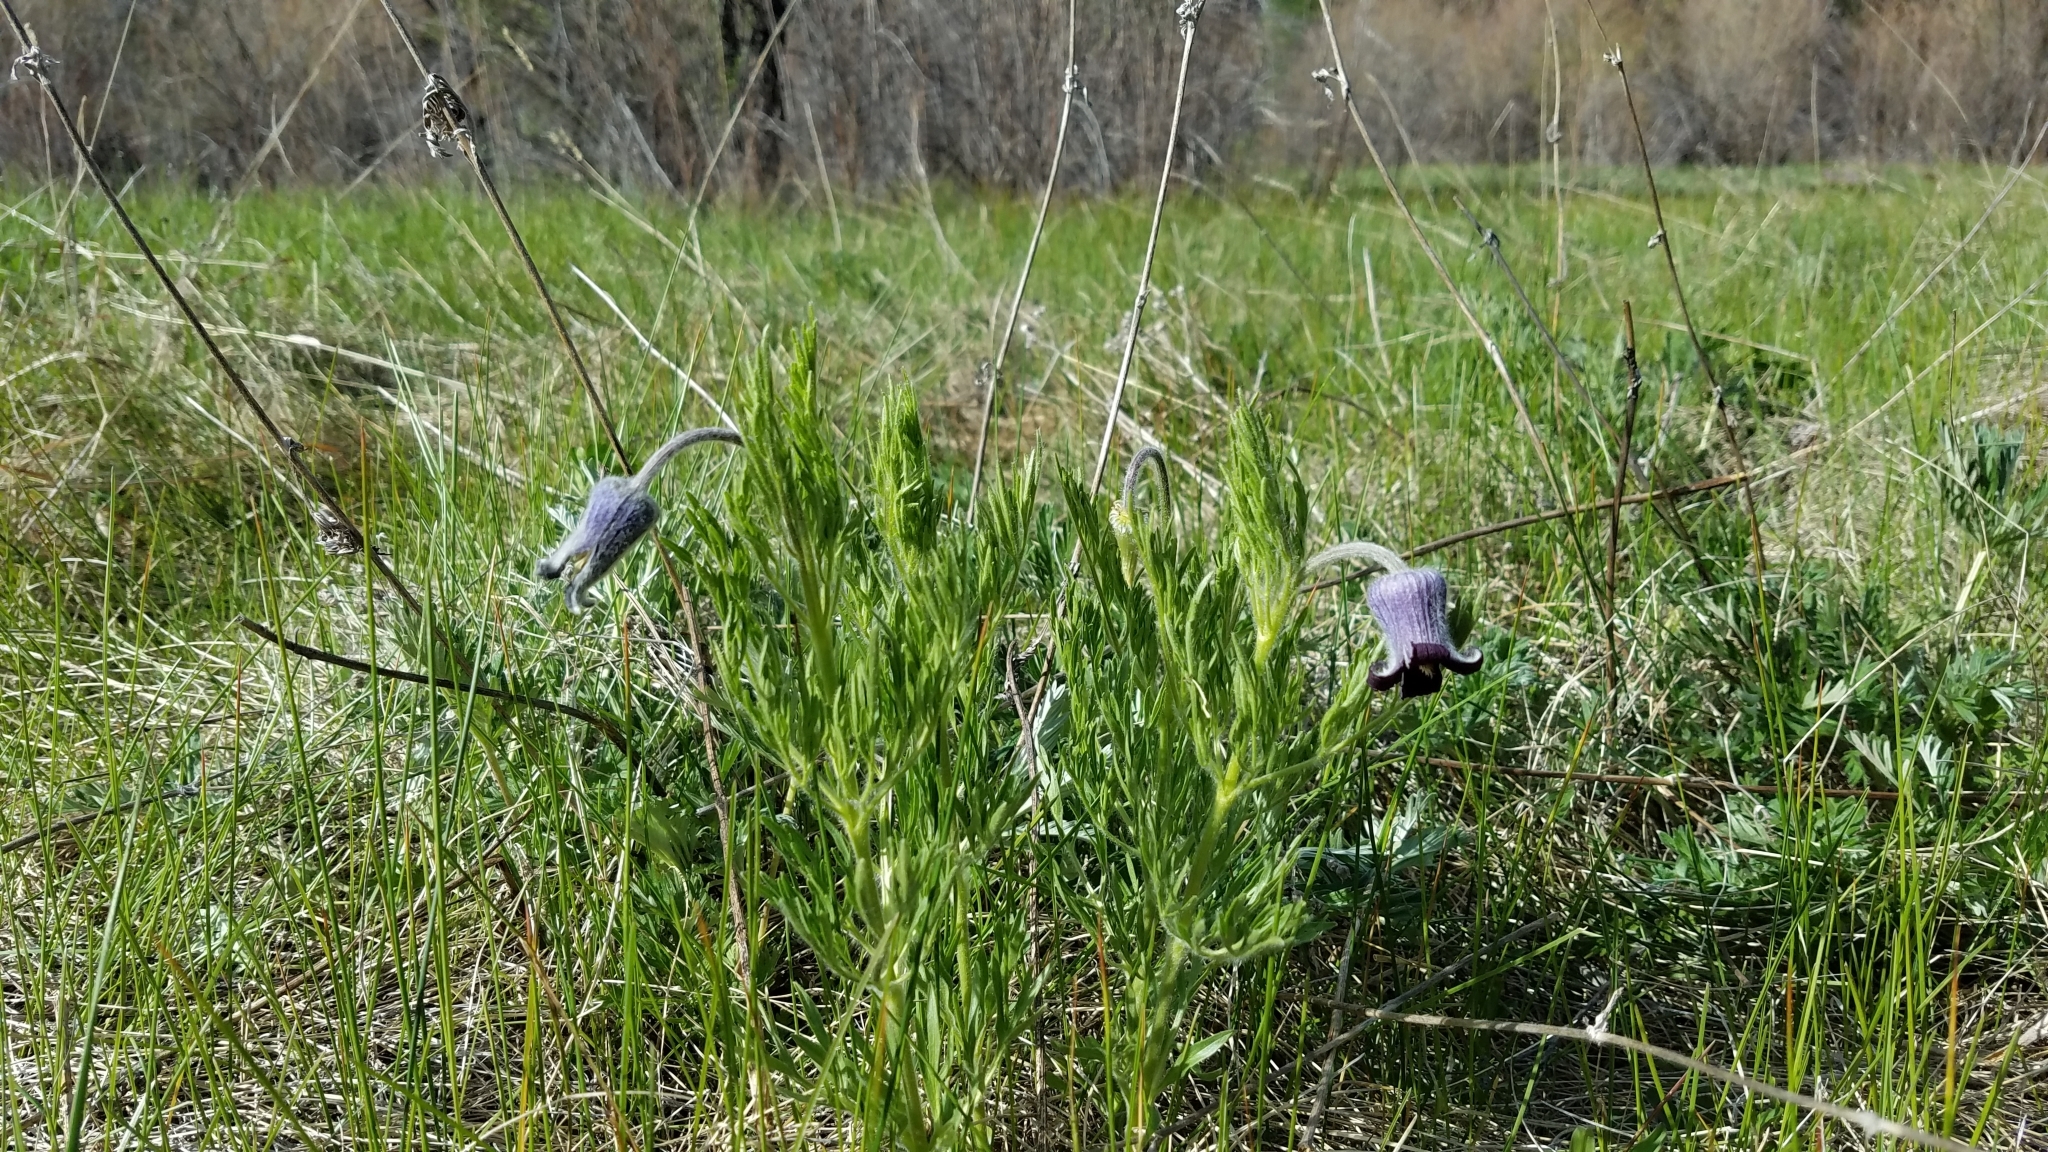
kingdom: Plantae
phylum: Tracheophyta
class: Magnoliopsida
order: Ranunculales
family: Ranunculaceae
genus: Clematis
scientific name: Clematis hirsutissima
